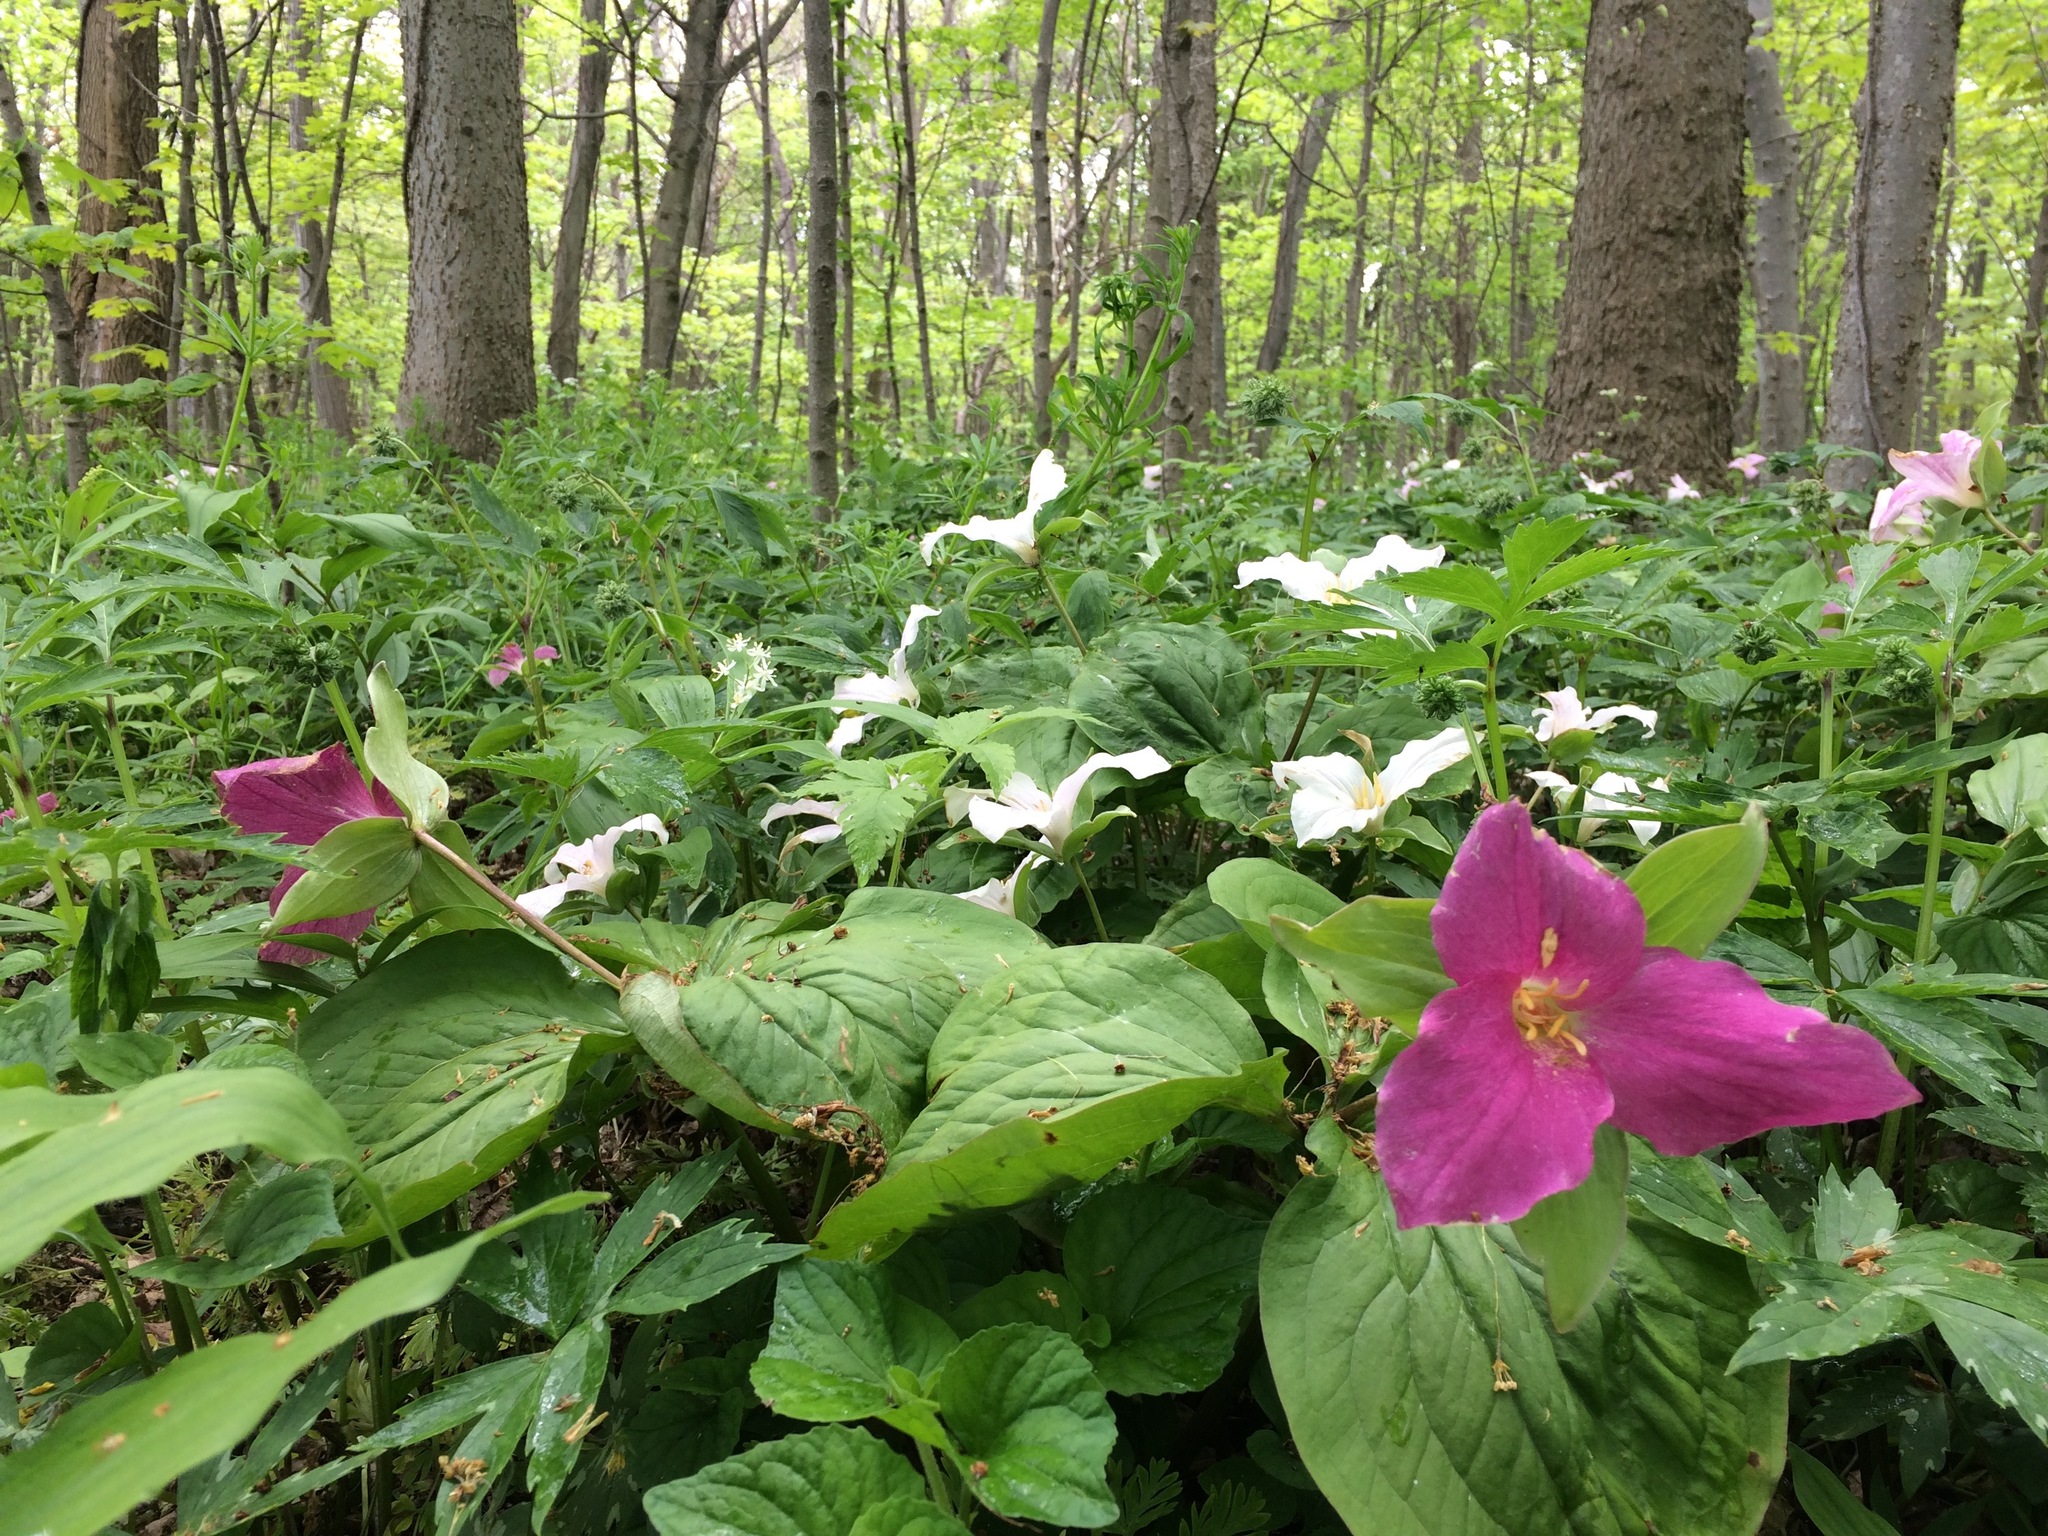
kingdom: Plantae
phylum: Tracheophyta
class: Liliopsida
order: Liliales
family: Melanthiaceae
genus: Trillium
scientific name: Trillium grandiflorum
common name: Great white trillium
